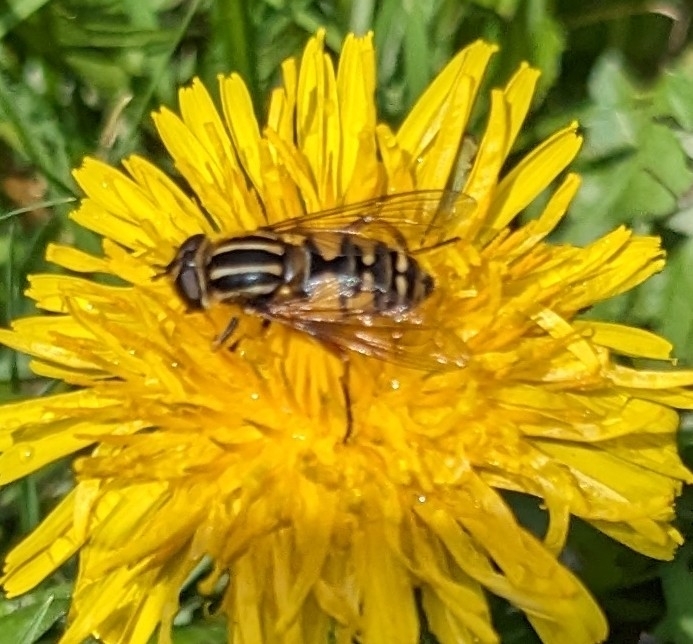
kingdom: Animalia
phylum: Arthropoda
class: Insecta
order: Diptera
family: Syrphidae
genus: Helophilus
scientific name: Helophilus pendulus
